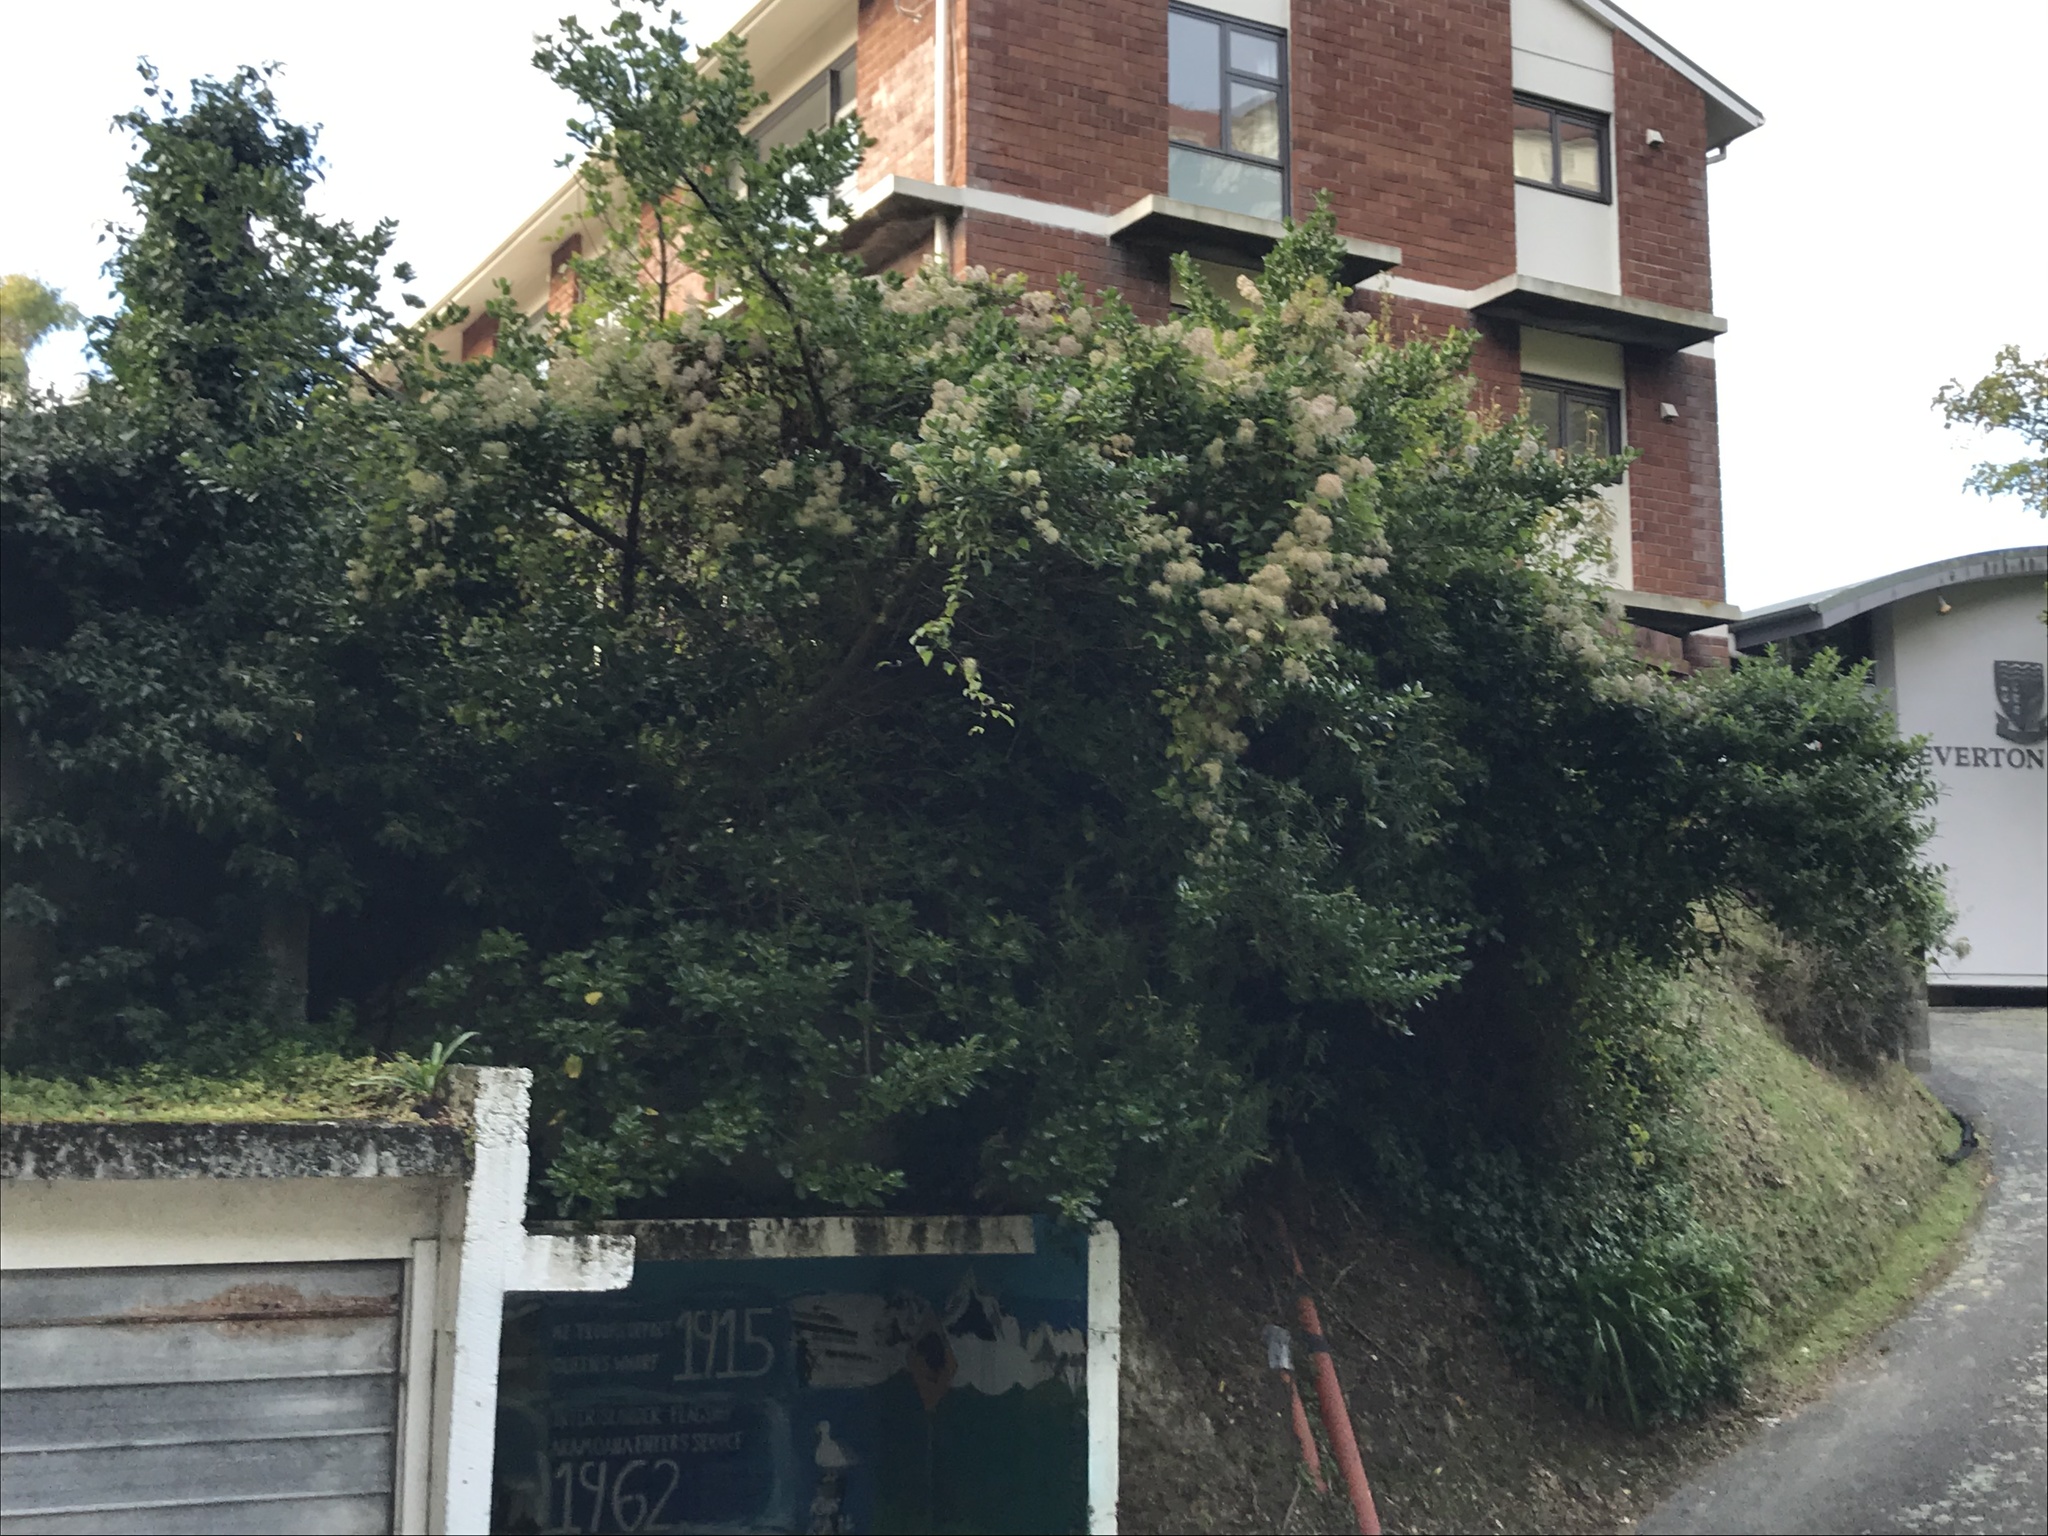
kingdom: Plantae
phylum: Tracheophyta
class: Magnoliopsida
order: Ranunculales
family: Ranunculaceae
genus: Clematis
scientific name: Clematis vitalba
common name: Evergreen clematis
